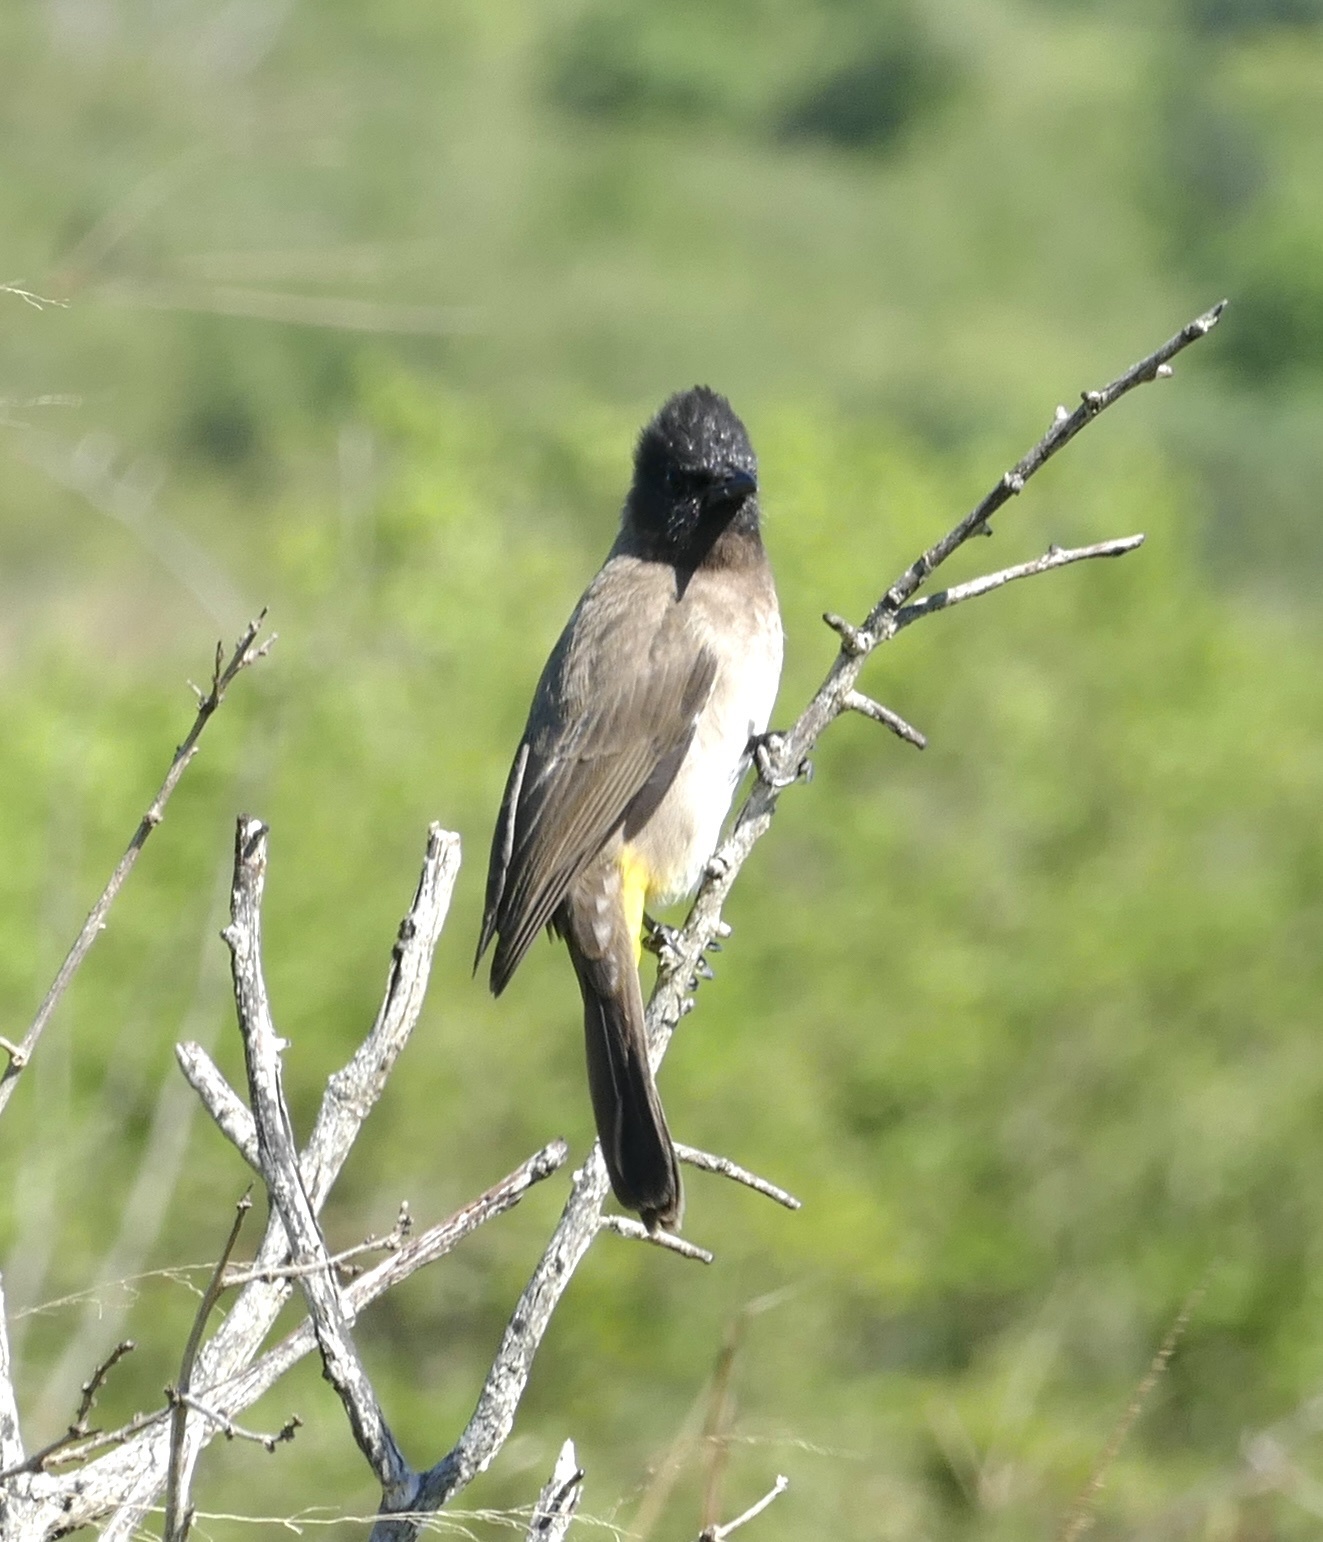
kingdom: Animalia
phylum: Chordata
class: Aves
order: Passeriformes
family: Pycnonotidae
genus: Pycnonotus
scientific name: Pycnonotus barbatus
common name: Common bulbul
